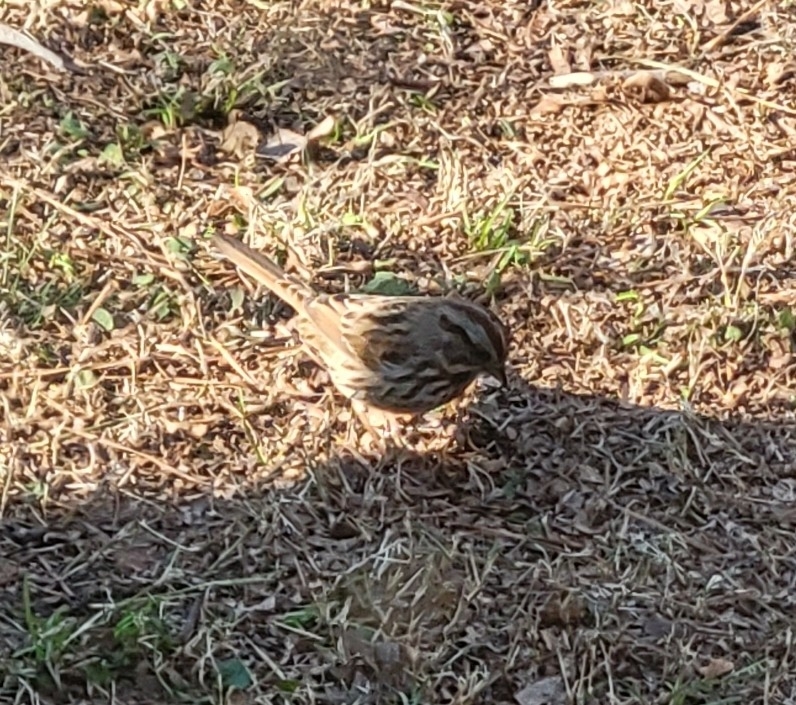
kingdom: Animalia
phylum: Chordata
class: Aves
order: Passeriformes
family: Passerellidae
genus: Melospiza
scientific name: Melospiza melodia
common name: Song sparrow
